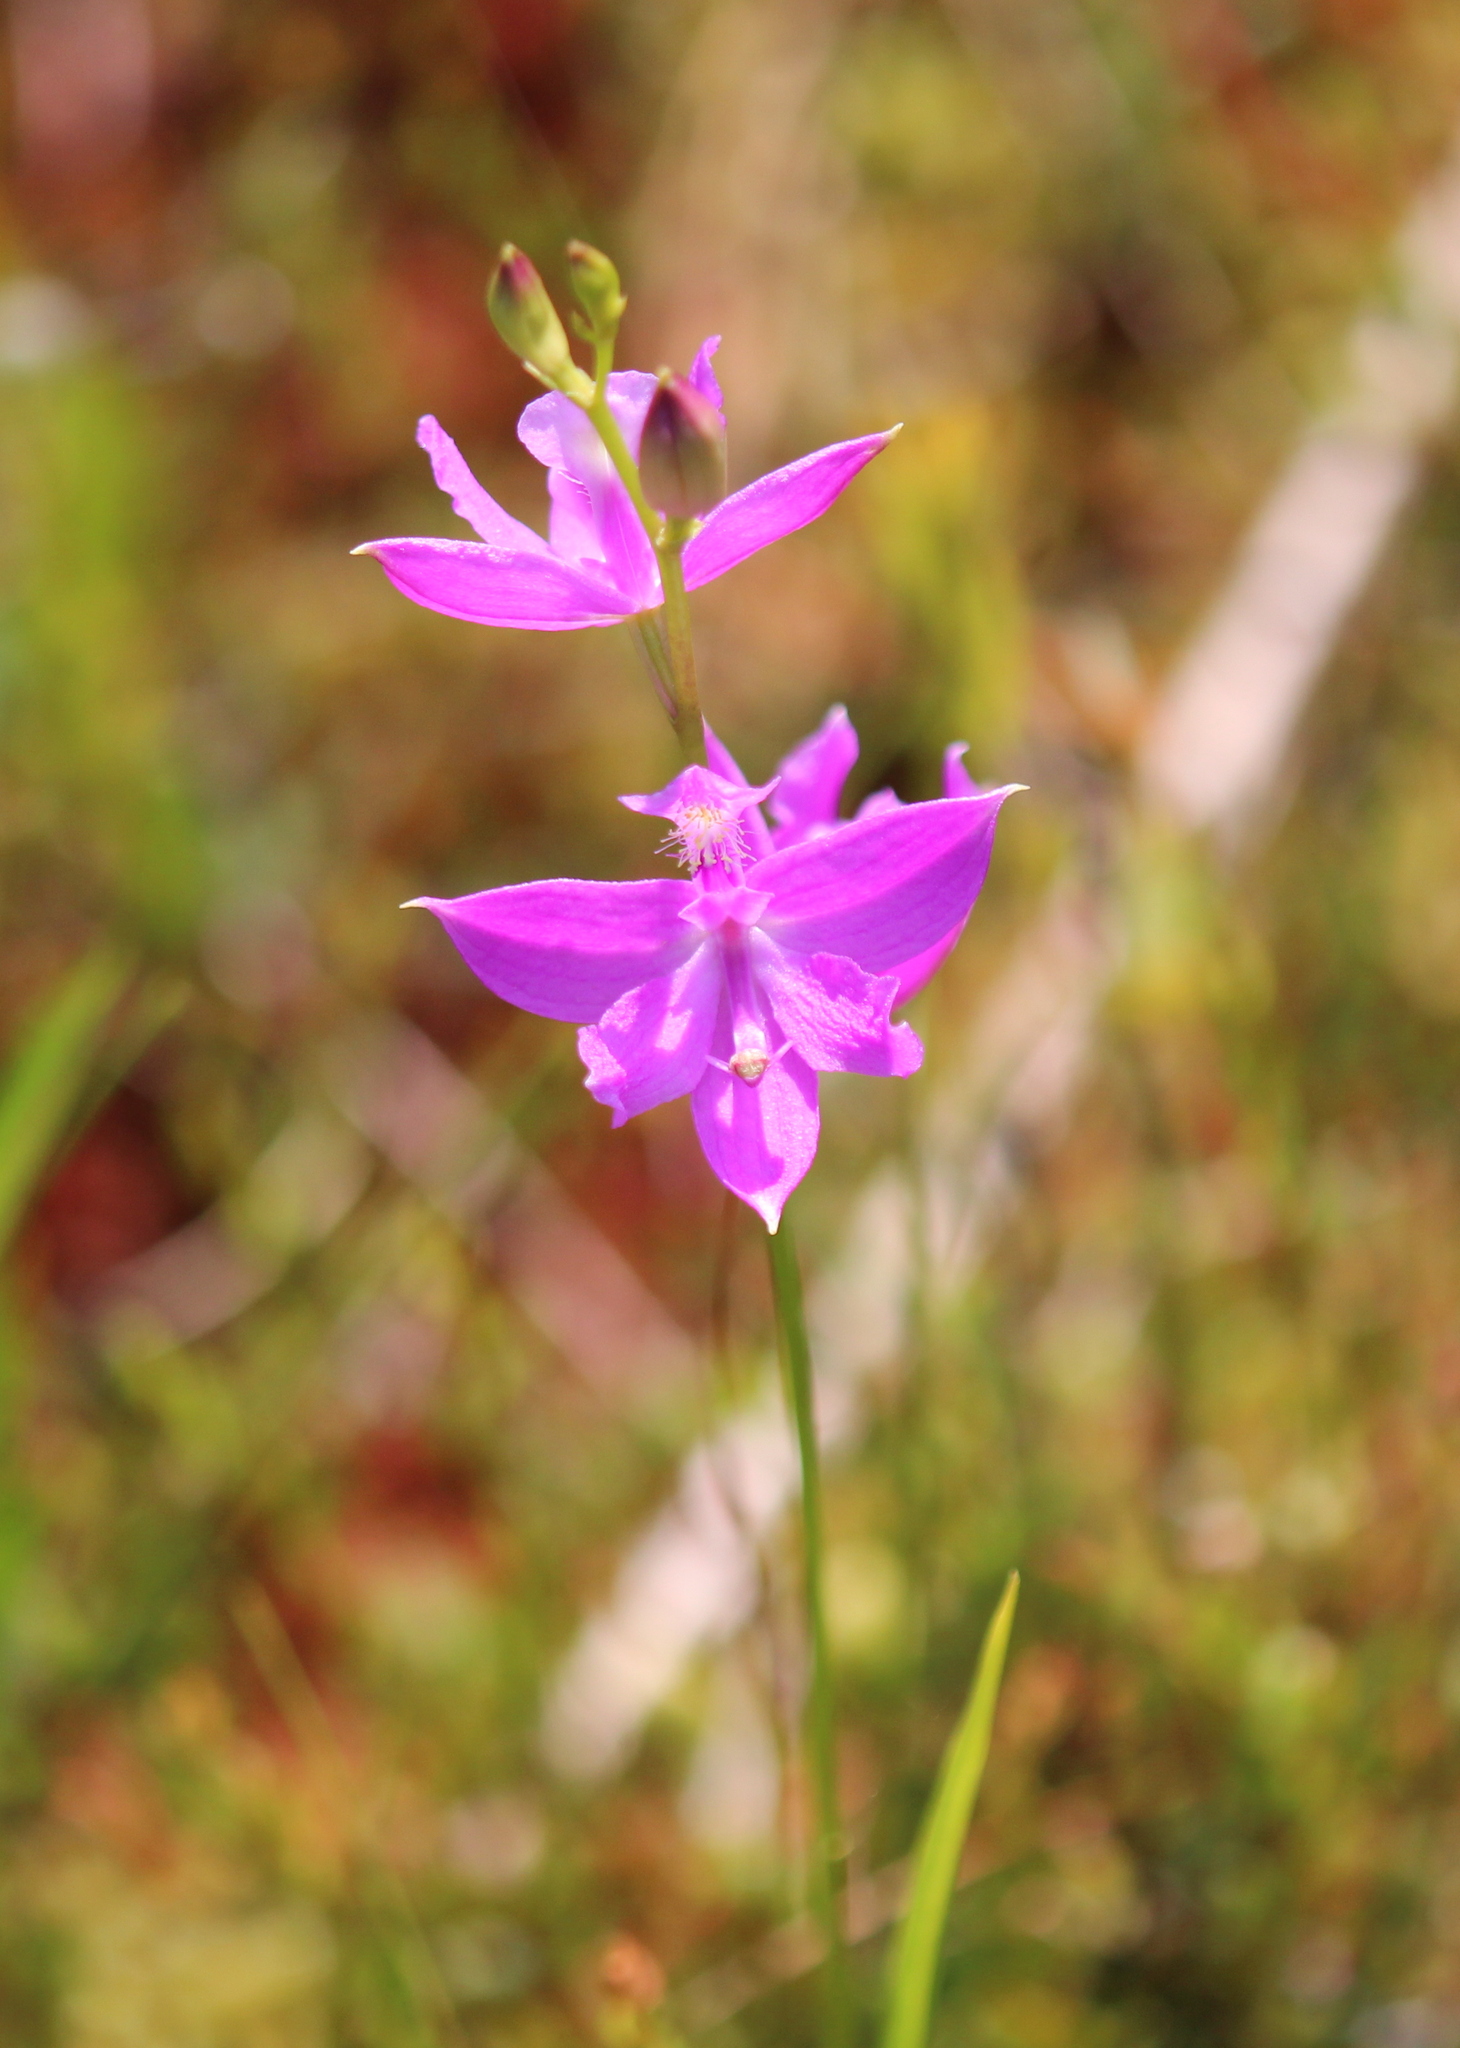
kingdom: Plantae
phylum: Tracheophyta
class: Liliopsida
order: Asparagales
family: Orchidaceae
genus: Calopogon
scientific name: Calopogon tuberosus
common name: Grass-pink
